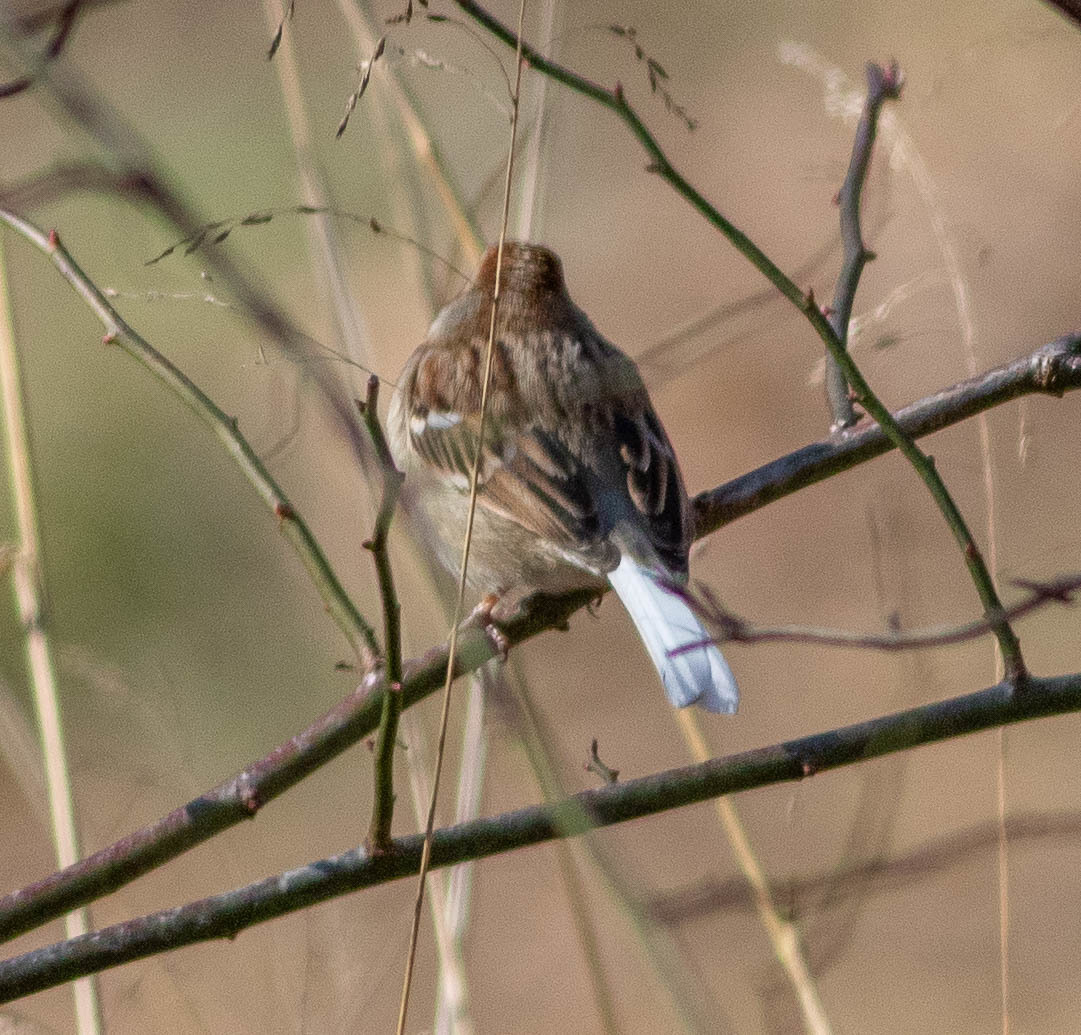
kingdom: Animalia
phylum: Chordata
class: Aves
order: Passeriformes
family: Passerellidae
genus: Spizella
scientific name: Spizella pusilla
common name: Field sparrow
